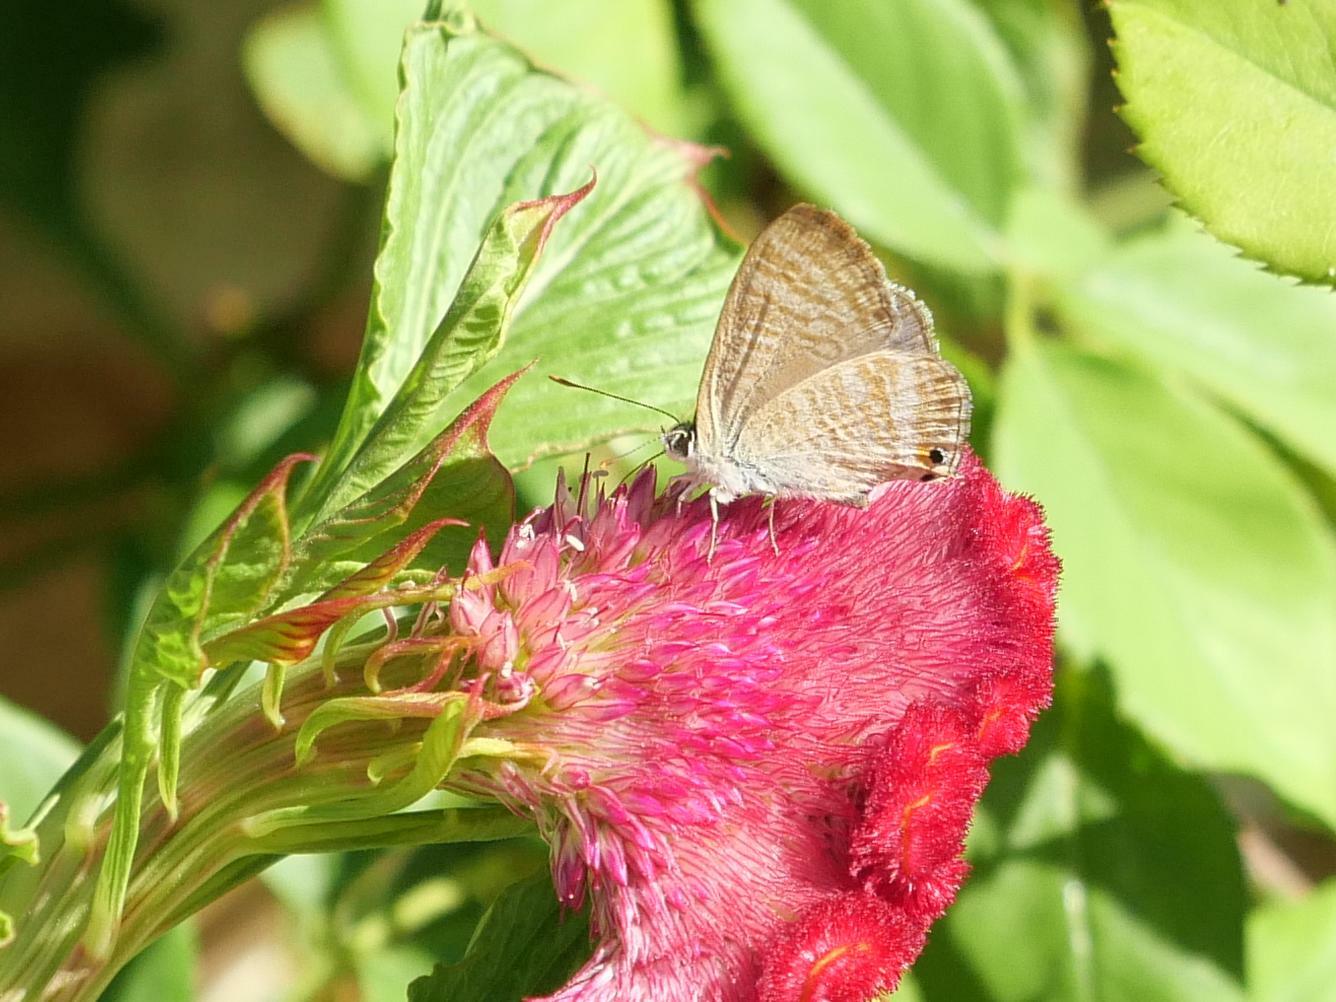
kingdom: Animalia
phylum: Arthropoda
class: Insecta
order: Lepidoptera
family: Lycaenidae
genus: Lampides
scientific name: Lampides boeticus
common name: Long-tailed blue
